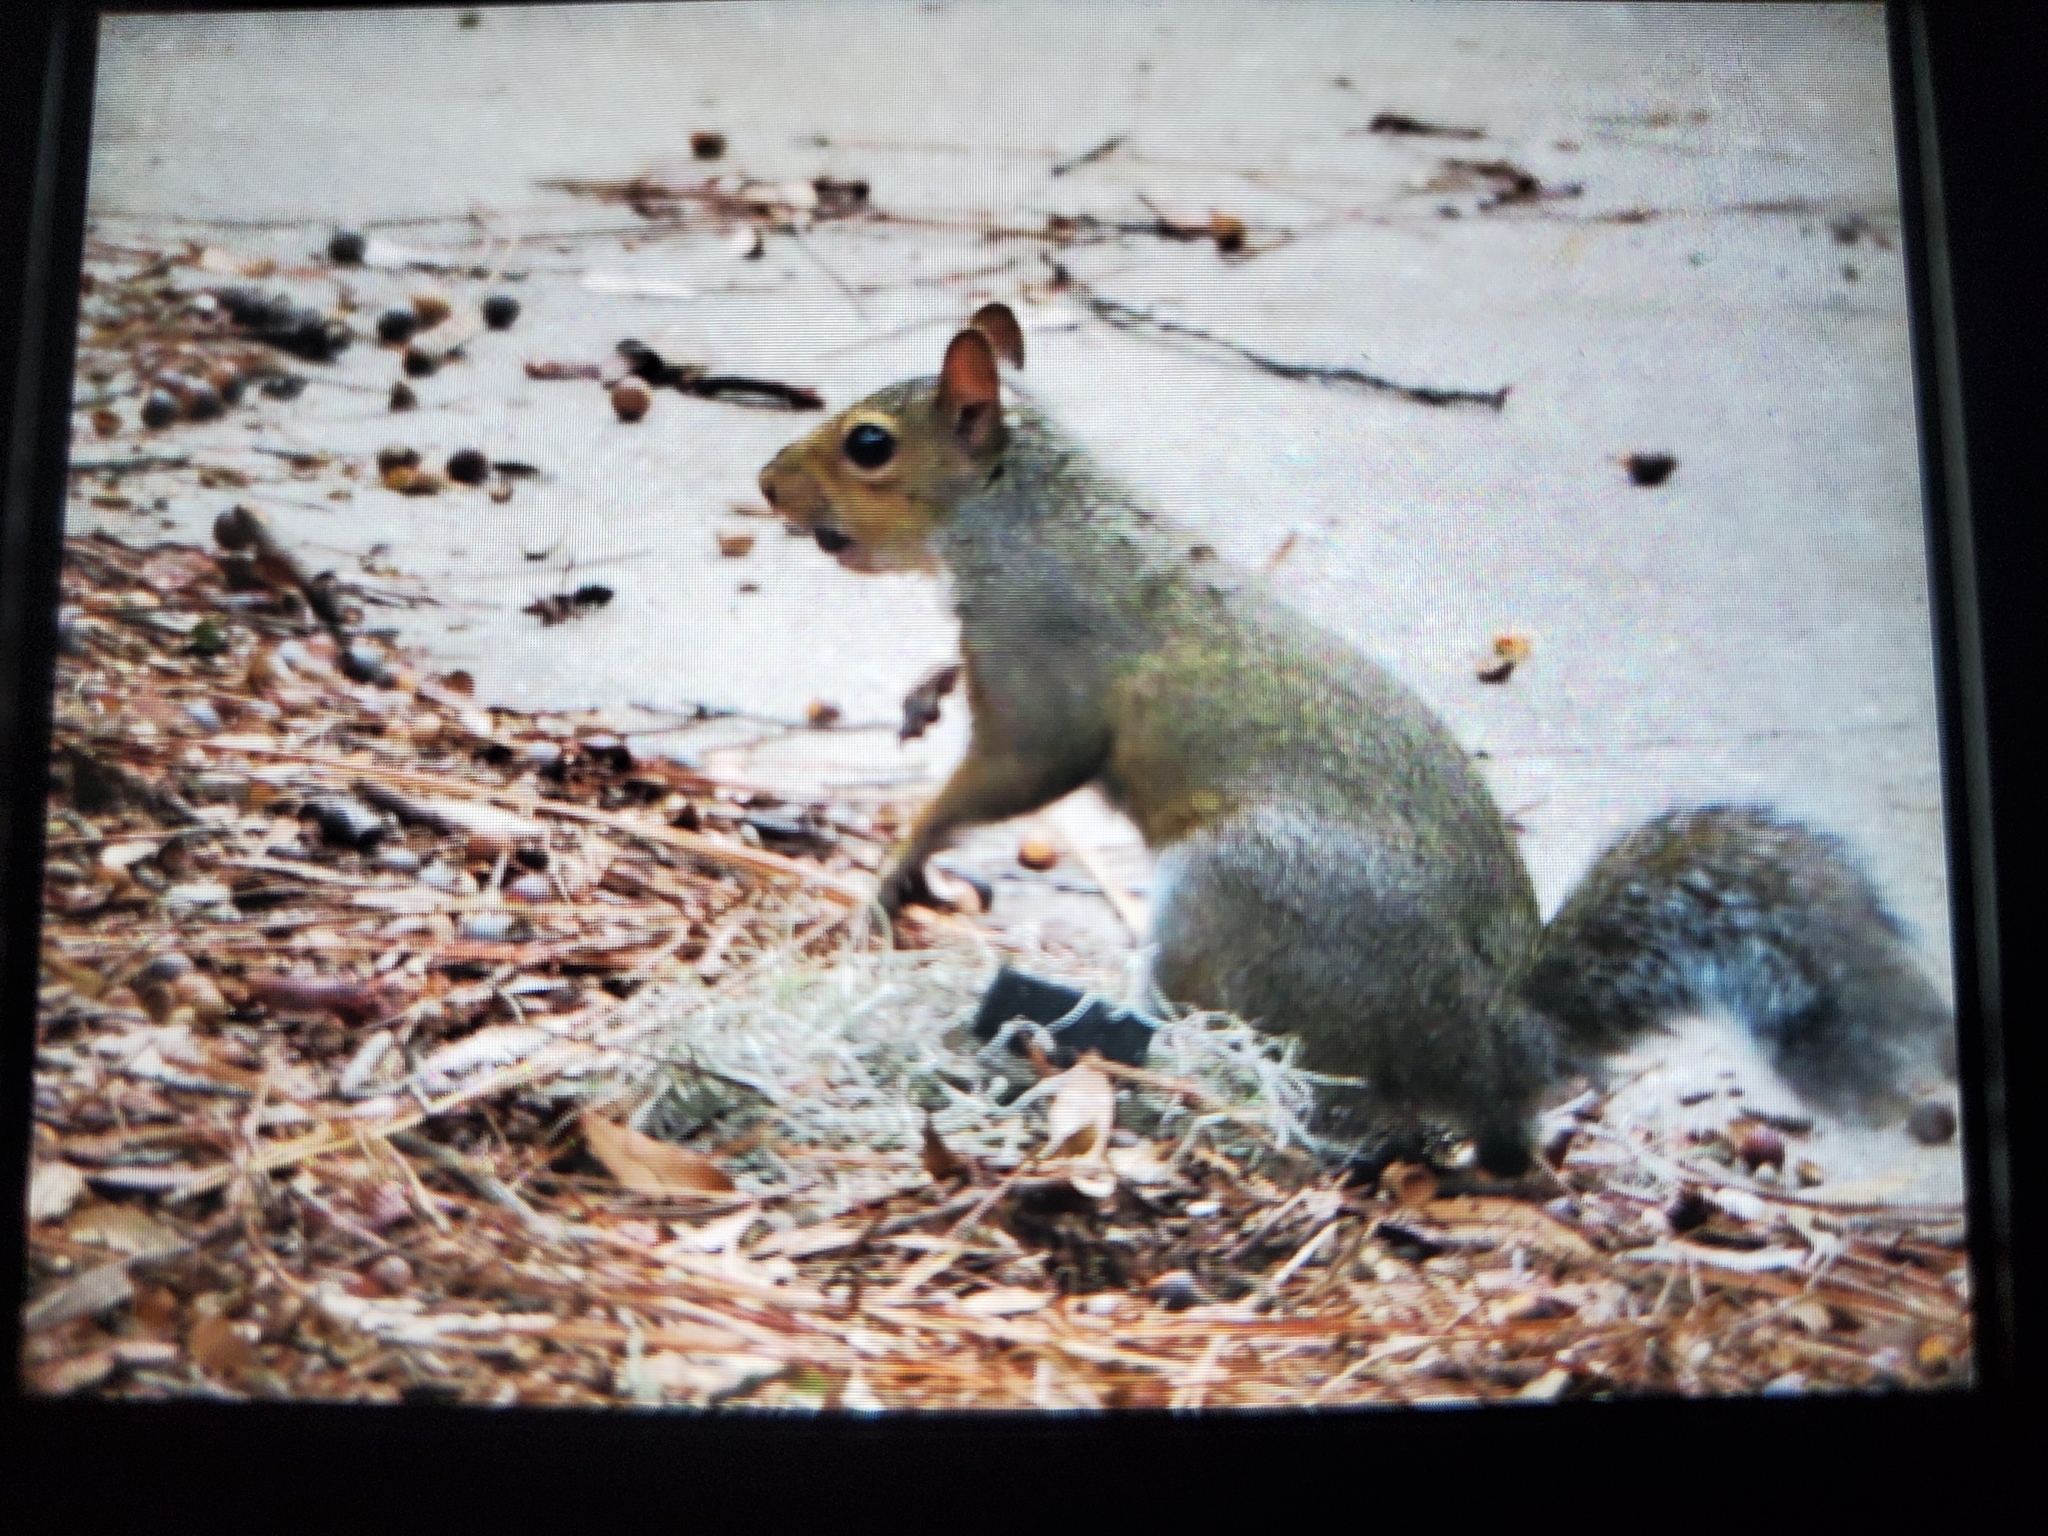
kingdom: Animalia
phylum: Chordata
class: Mammalia
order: Rodentia
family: Sciuridae
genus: Sciurus
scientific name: Sciurus carolinensis
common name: Eastern gray squirrel
